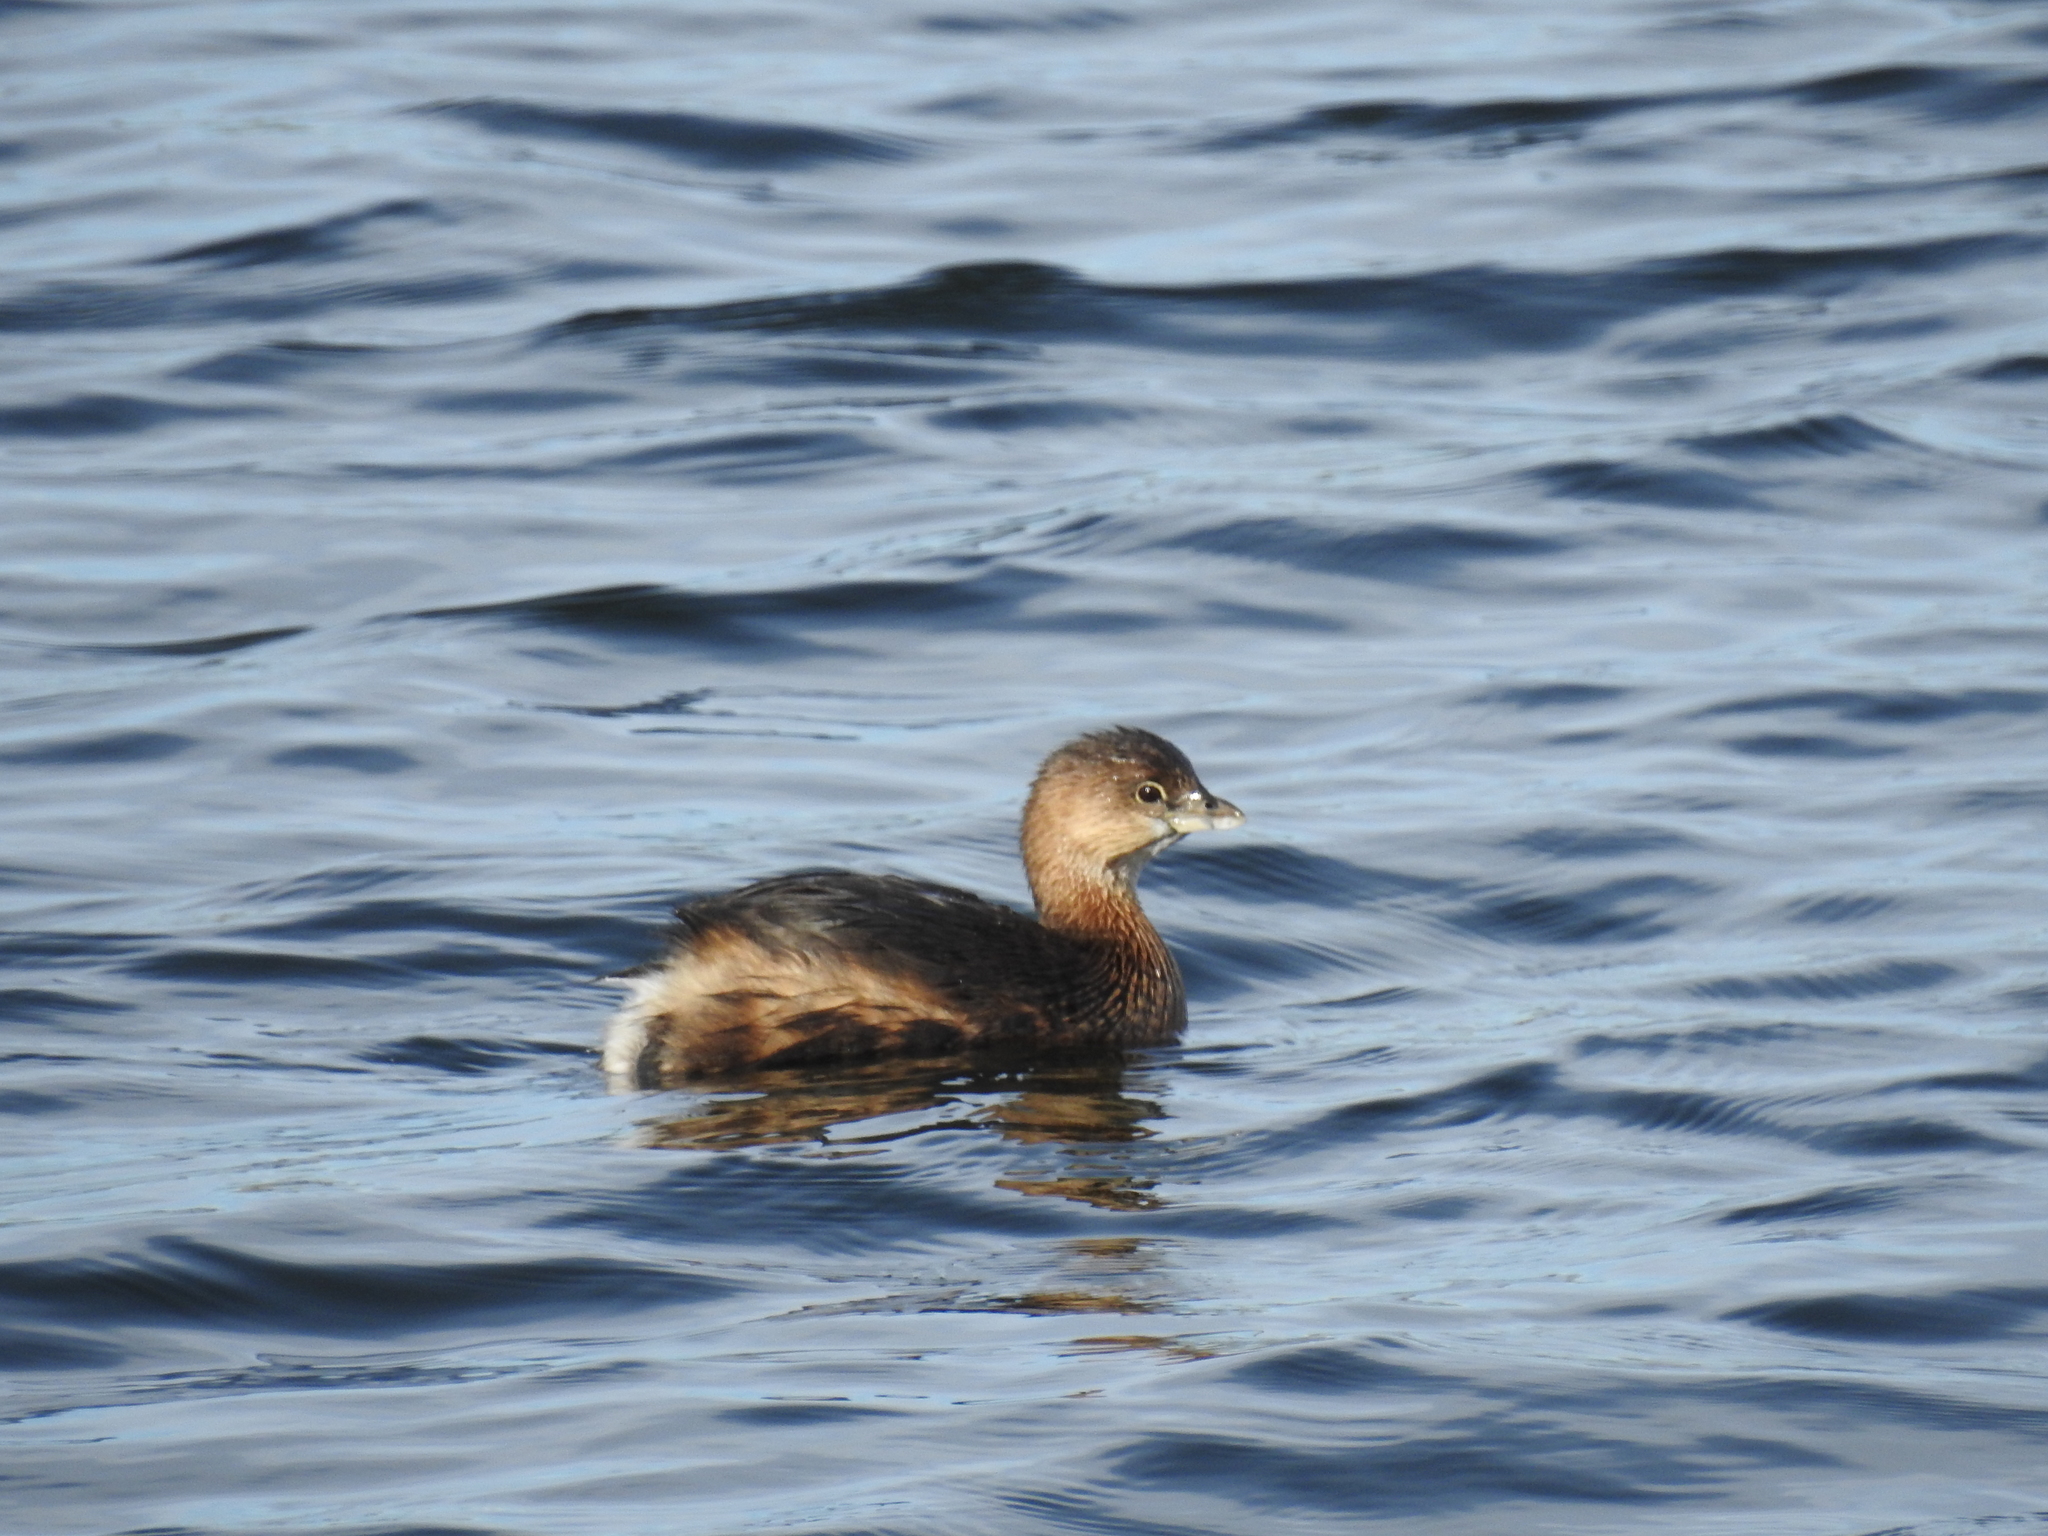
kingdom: Animalia
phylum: Chordata
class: Aves
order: Podicipediformes
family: Podicipedidae
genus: Podilymbus
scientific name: Podilymbus podiceps
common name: Pied-billed grebe
